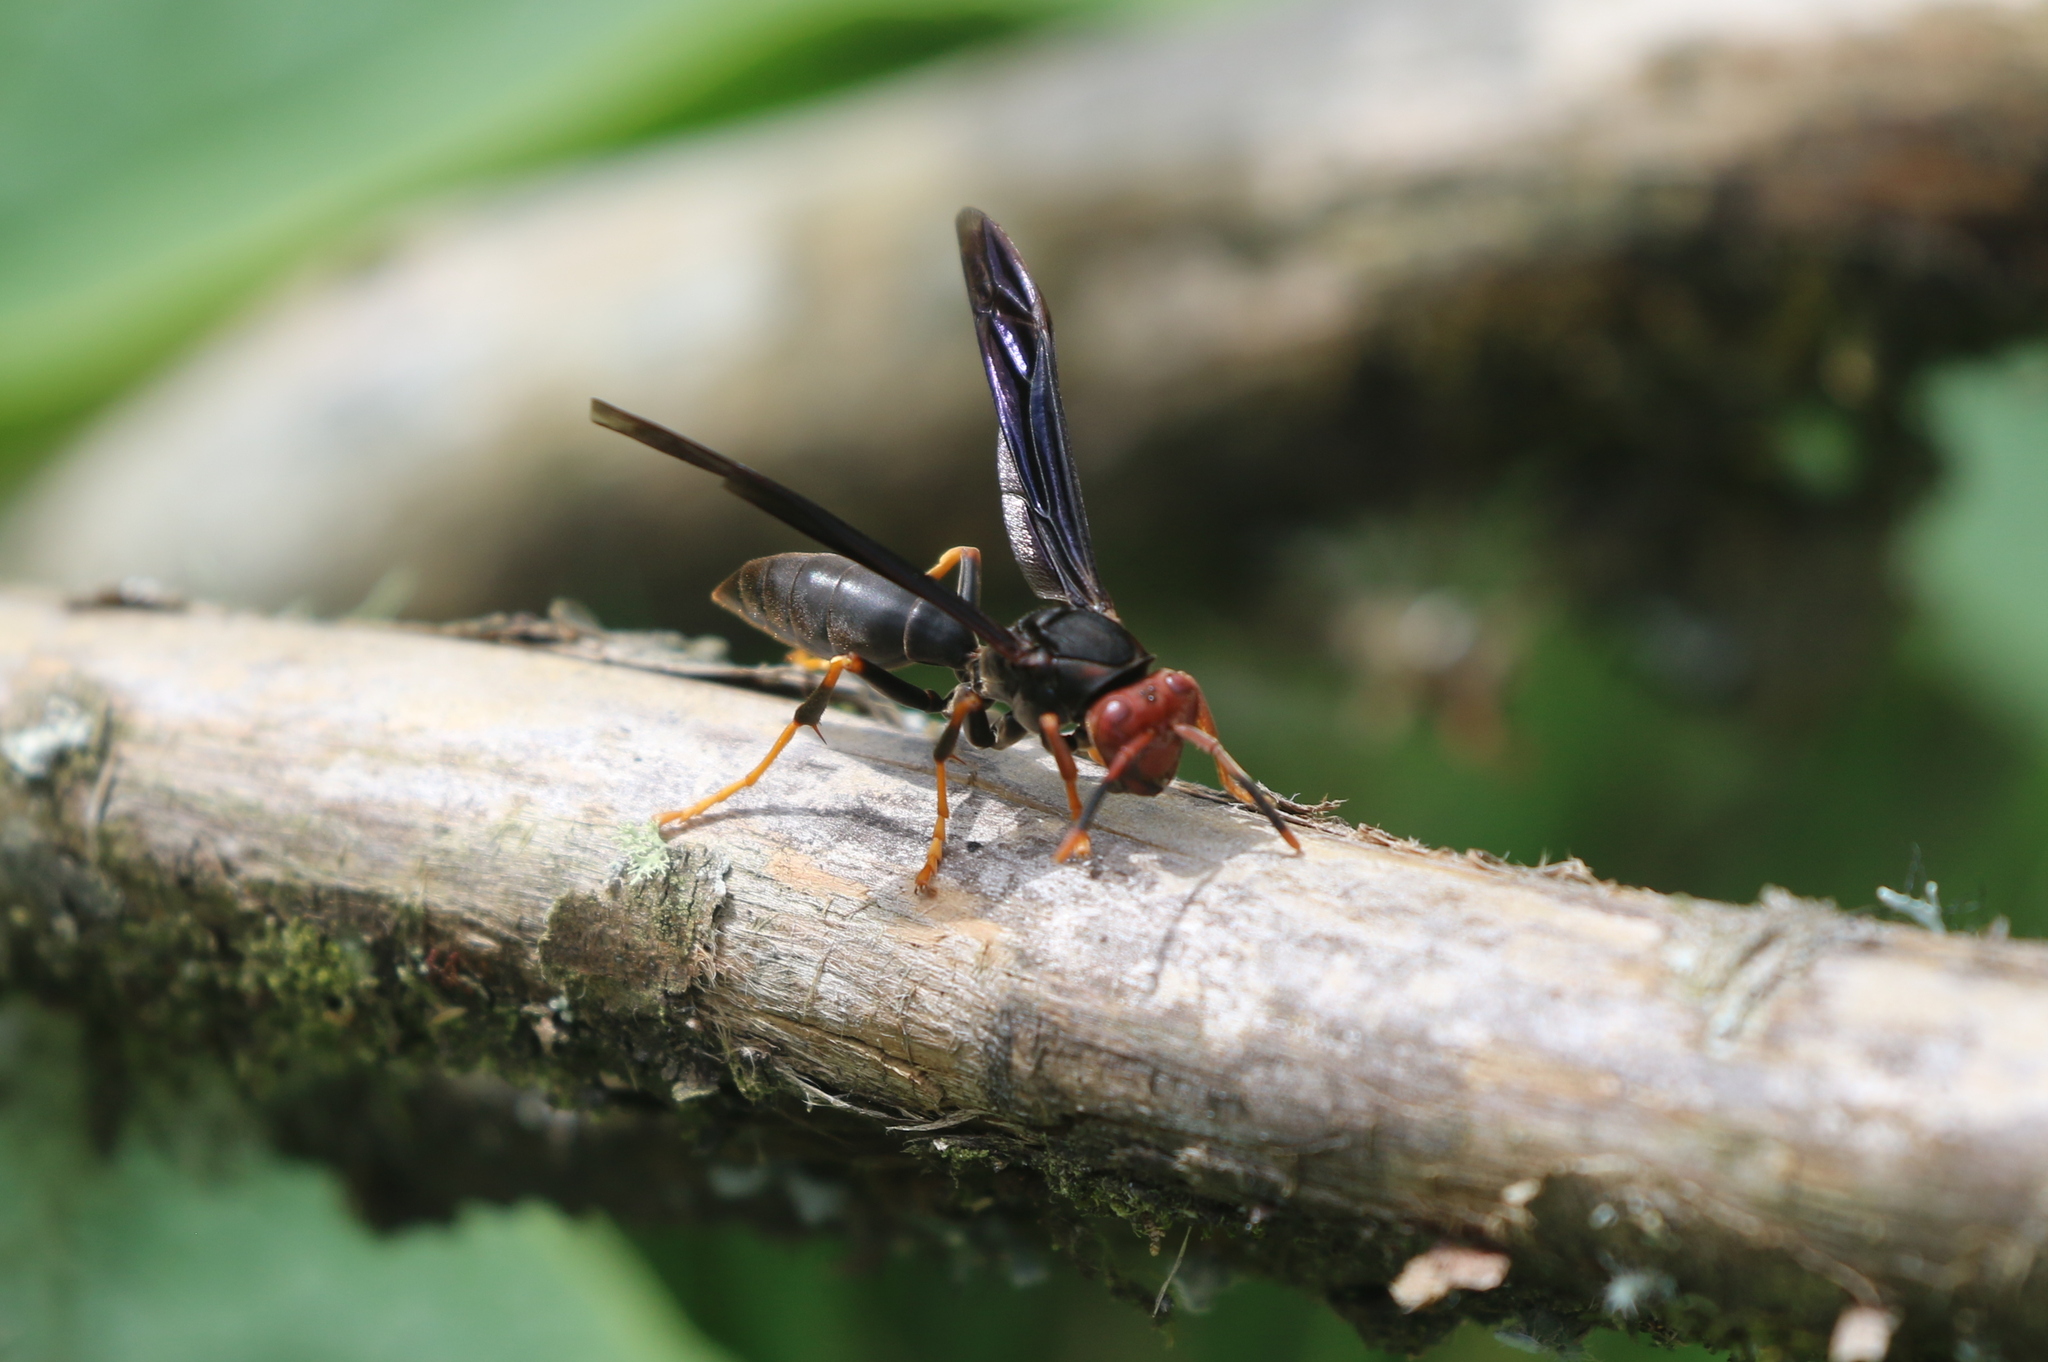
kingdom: Animalia
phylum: Arthropoda
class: Insecta
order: Hymenoptera
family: Eumenidae
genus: Polistes
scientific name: Polistes erythrocephalus
